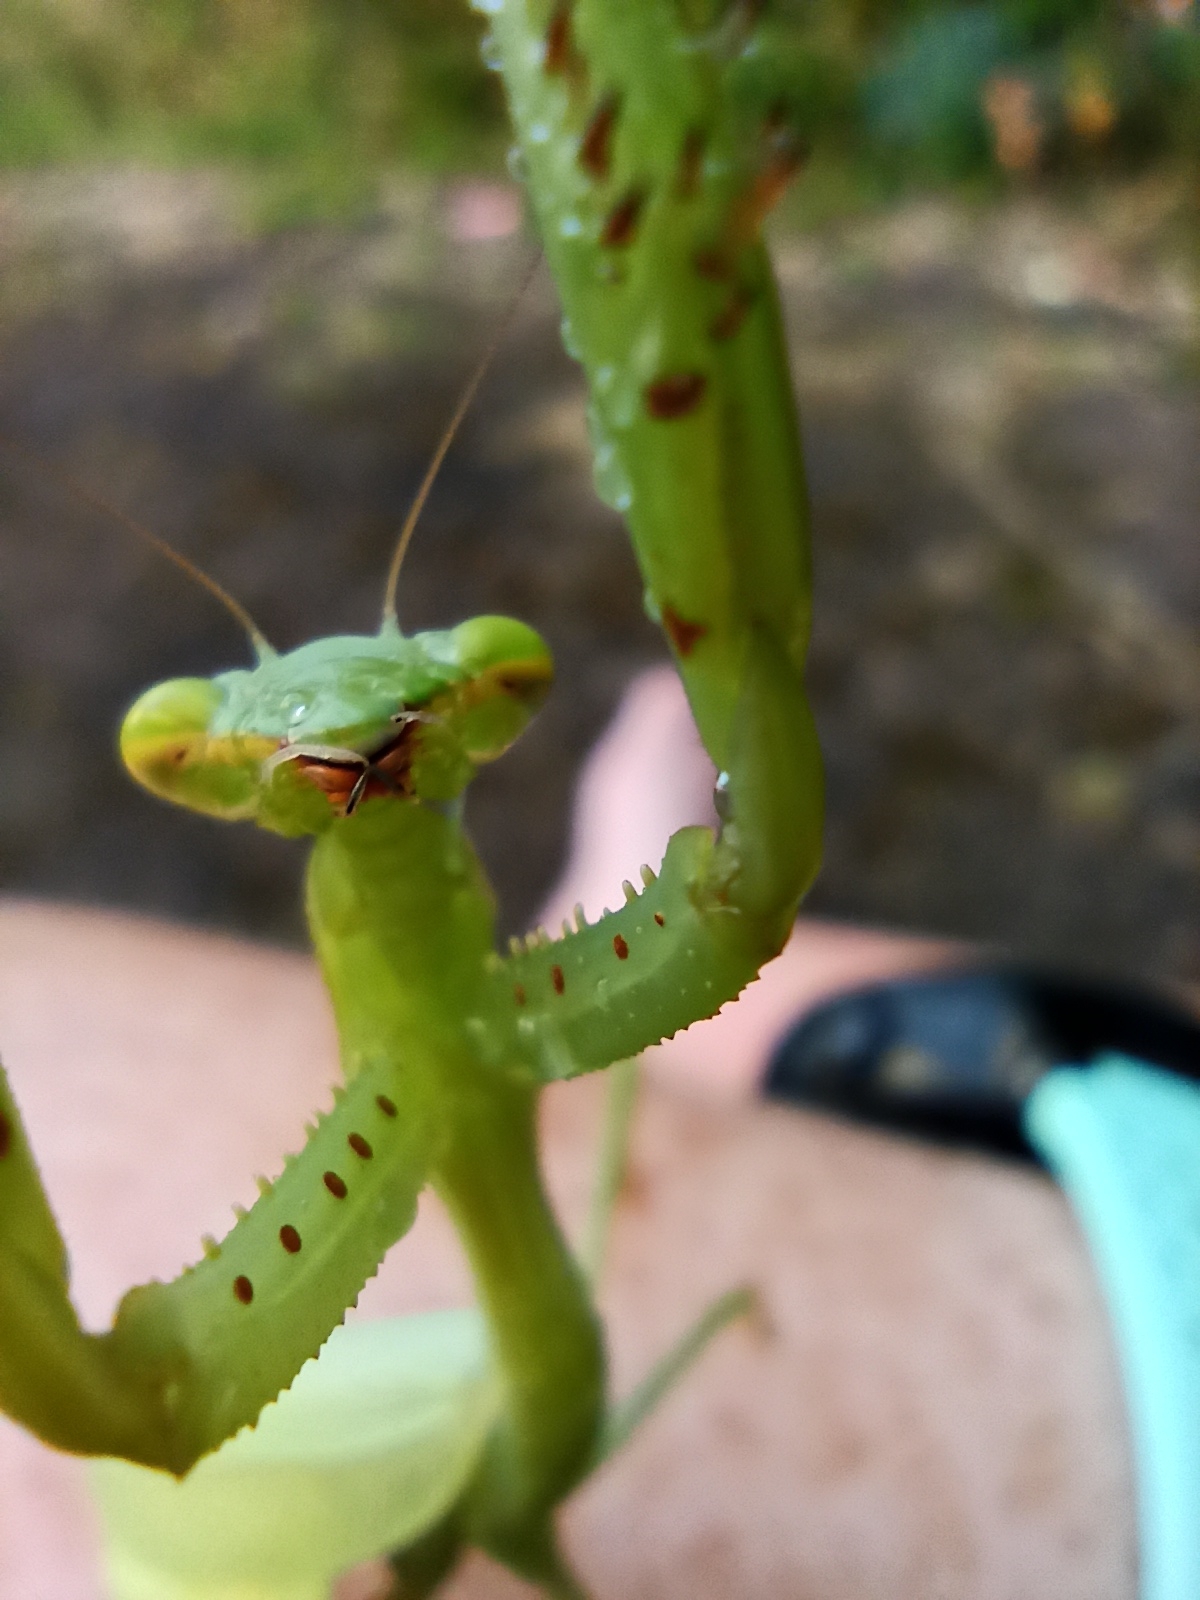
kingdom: Animalia
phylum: Arthropoda
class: Insecta
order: Mantodea
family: Miomantidae
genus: Miomantis
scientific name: Miomantis caffra
